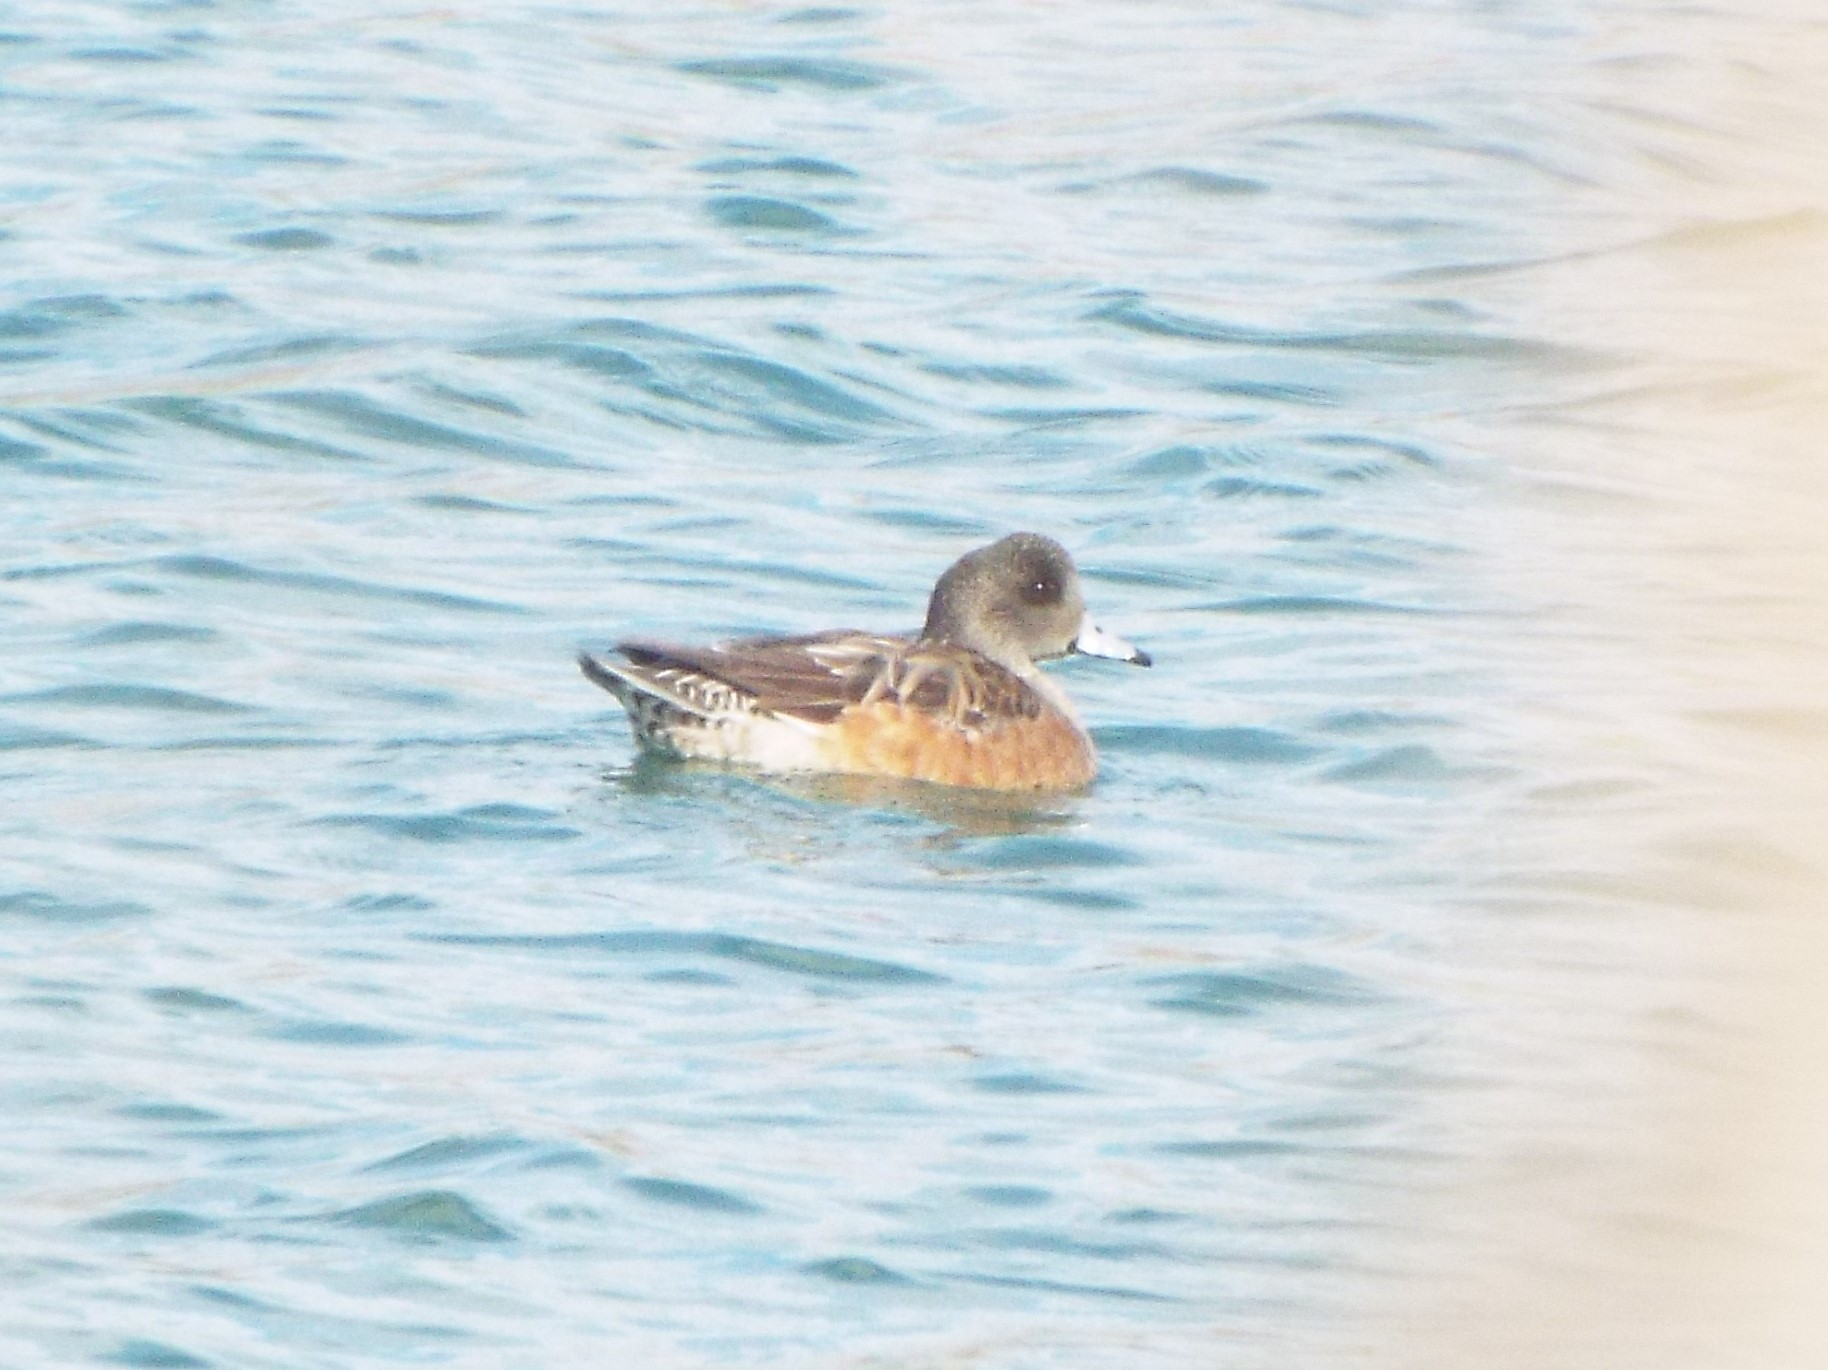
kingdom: Animalia
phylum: Chordata
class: Aves
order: Anseriformes
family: Anatidae
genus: Mareca
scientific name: Mareca americana
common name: American wigeon
